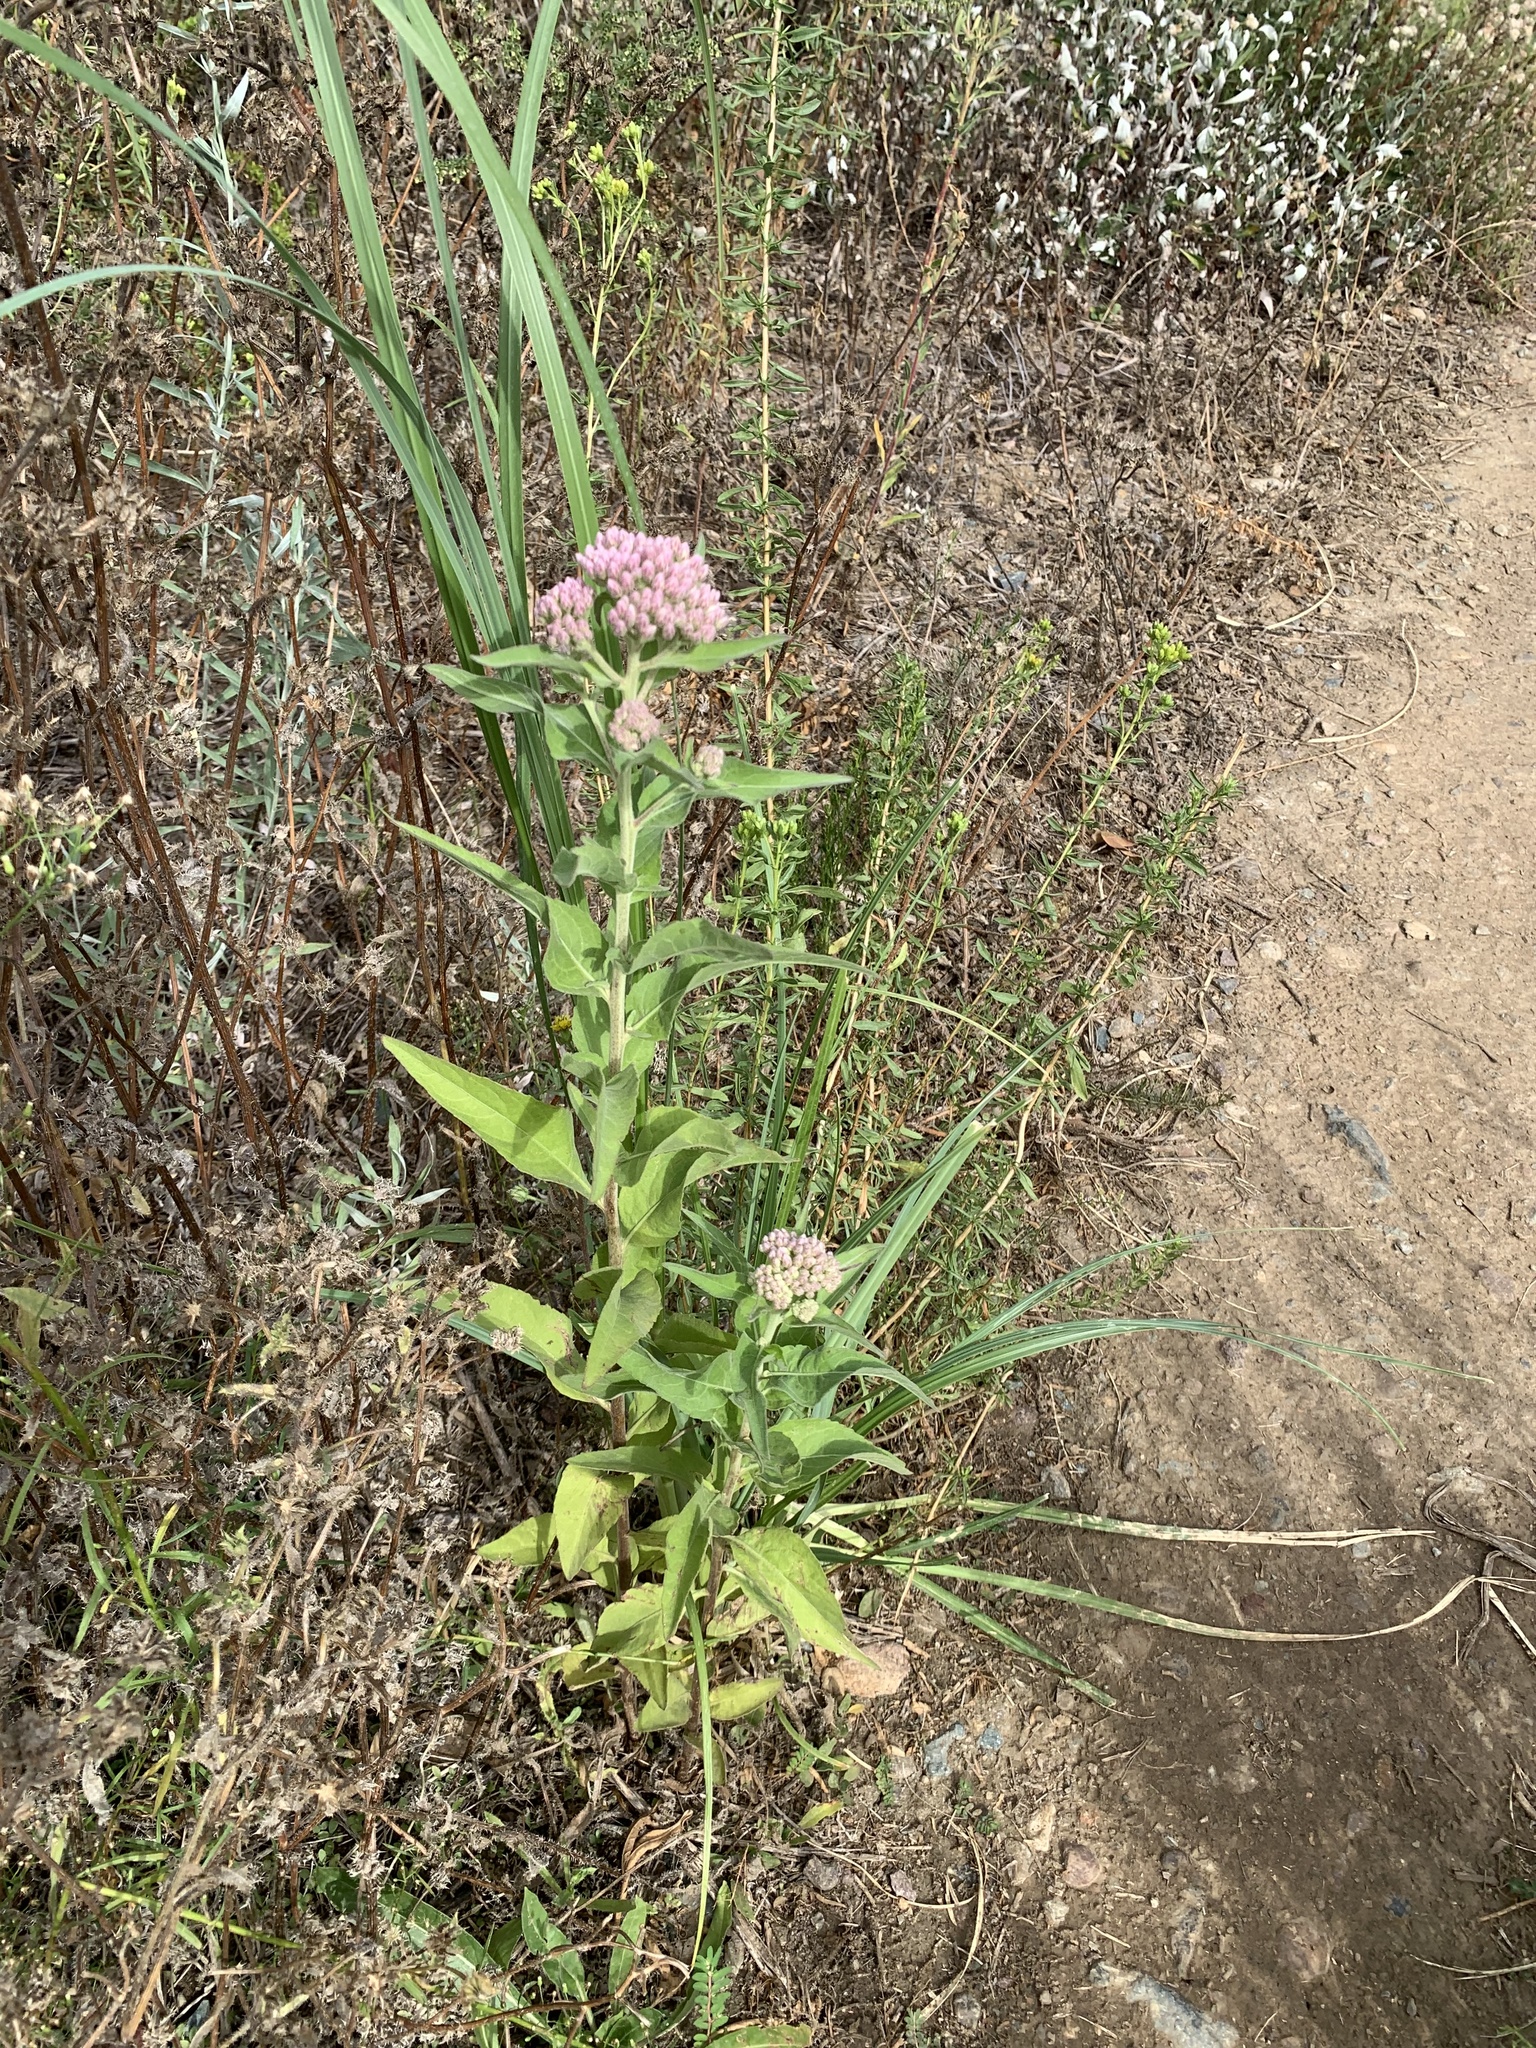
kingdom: Plantae
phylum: Tracheophyta
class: Magnoliopsida
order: Asterales
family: Asteraceae
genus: Pluchea
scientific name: Pluchea odorata
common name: Saltmarsh fleabane
